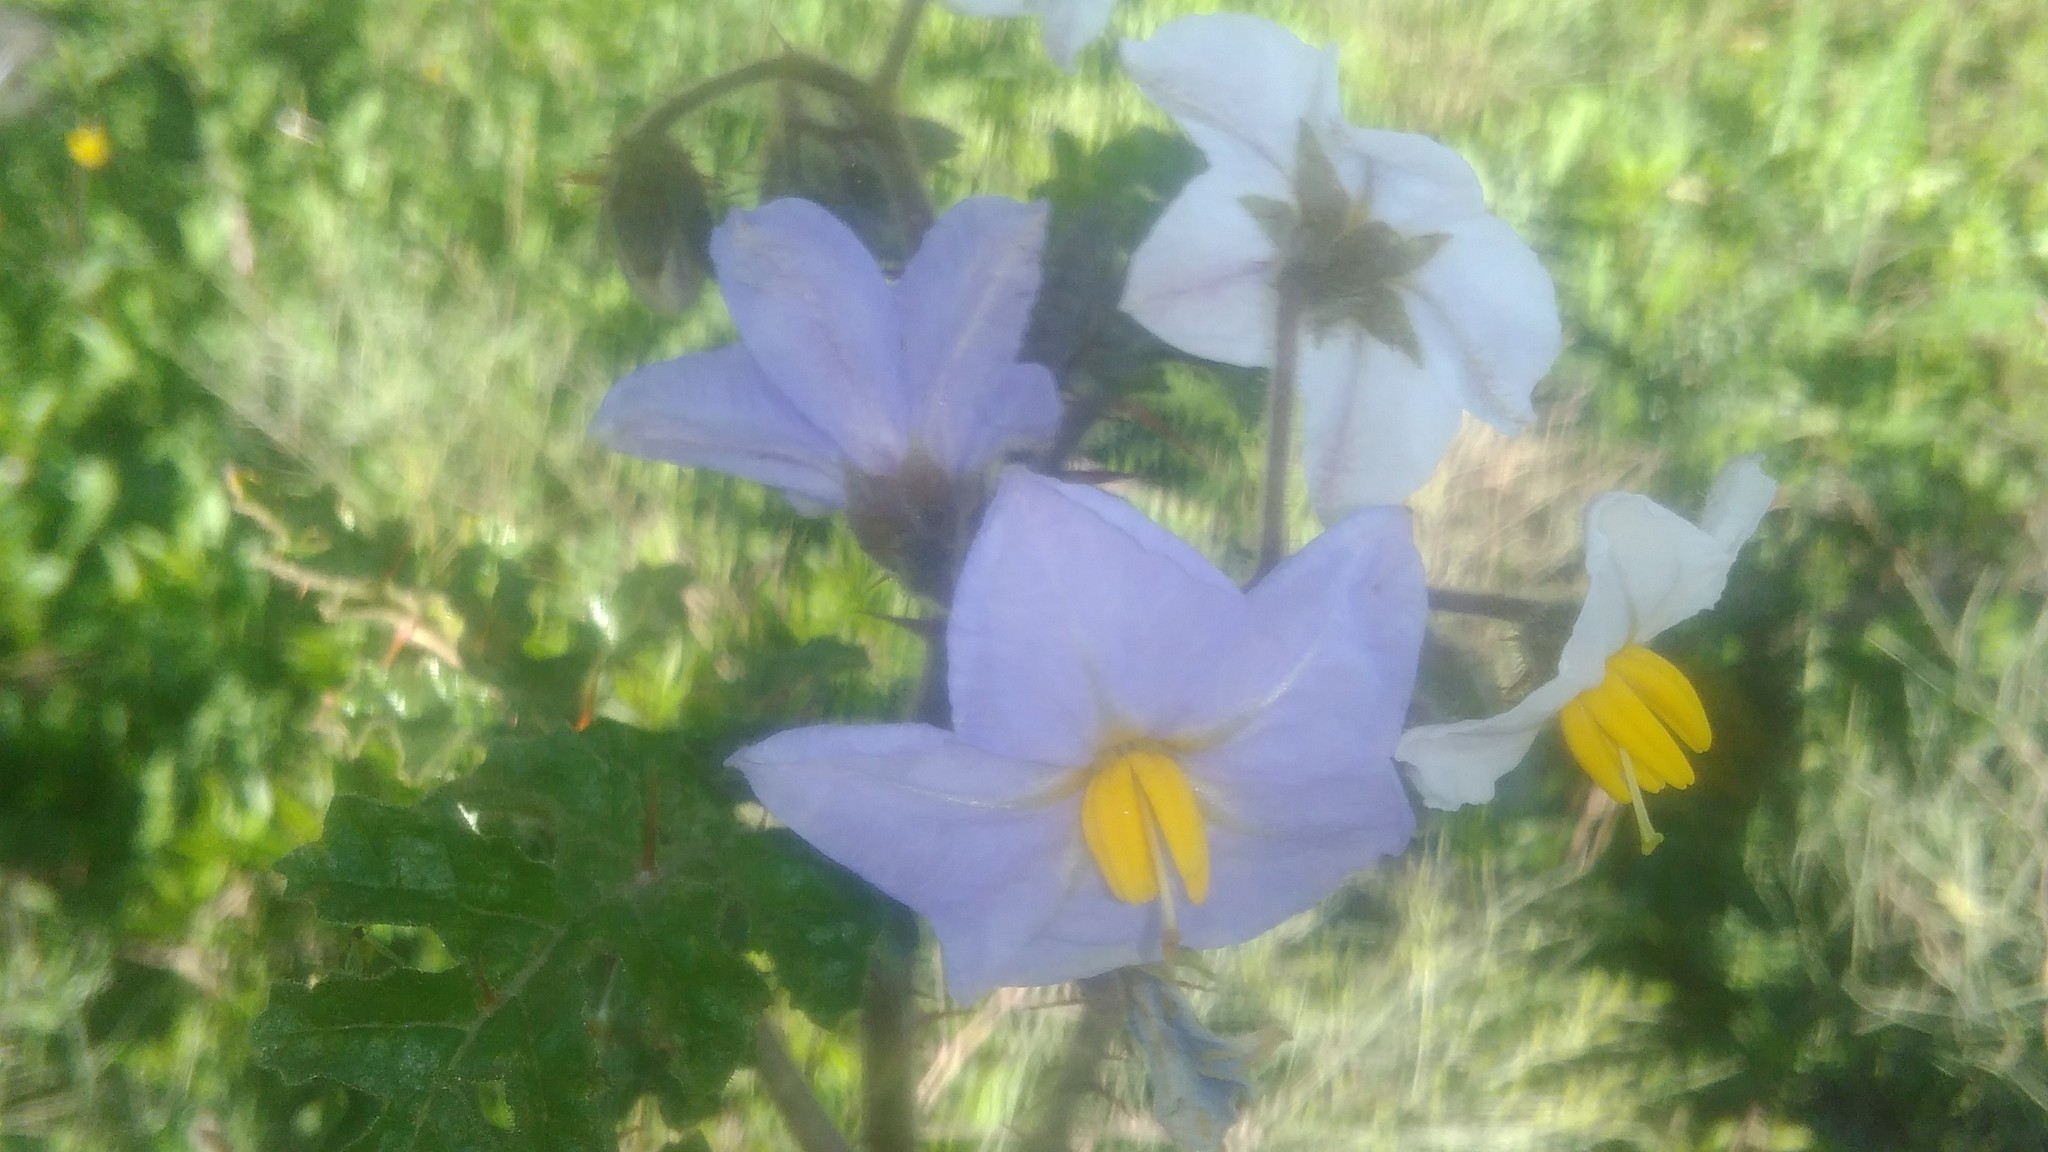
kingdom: Plantae
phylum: Tracheophyta
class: Magnoliopsida
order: Solanales
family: Solanaceae
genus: Solanum
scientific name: Solanum sisymbriifolium
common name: Red buffalo-bur
